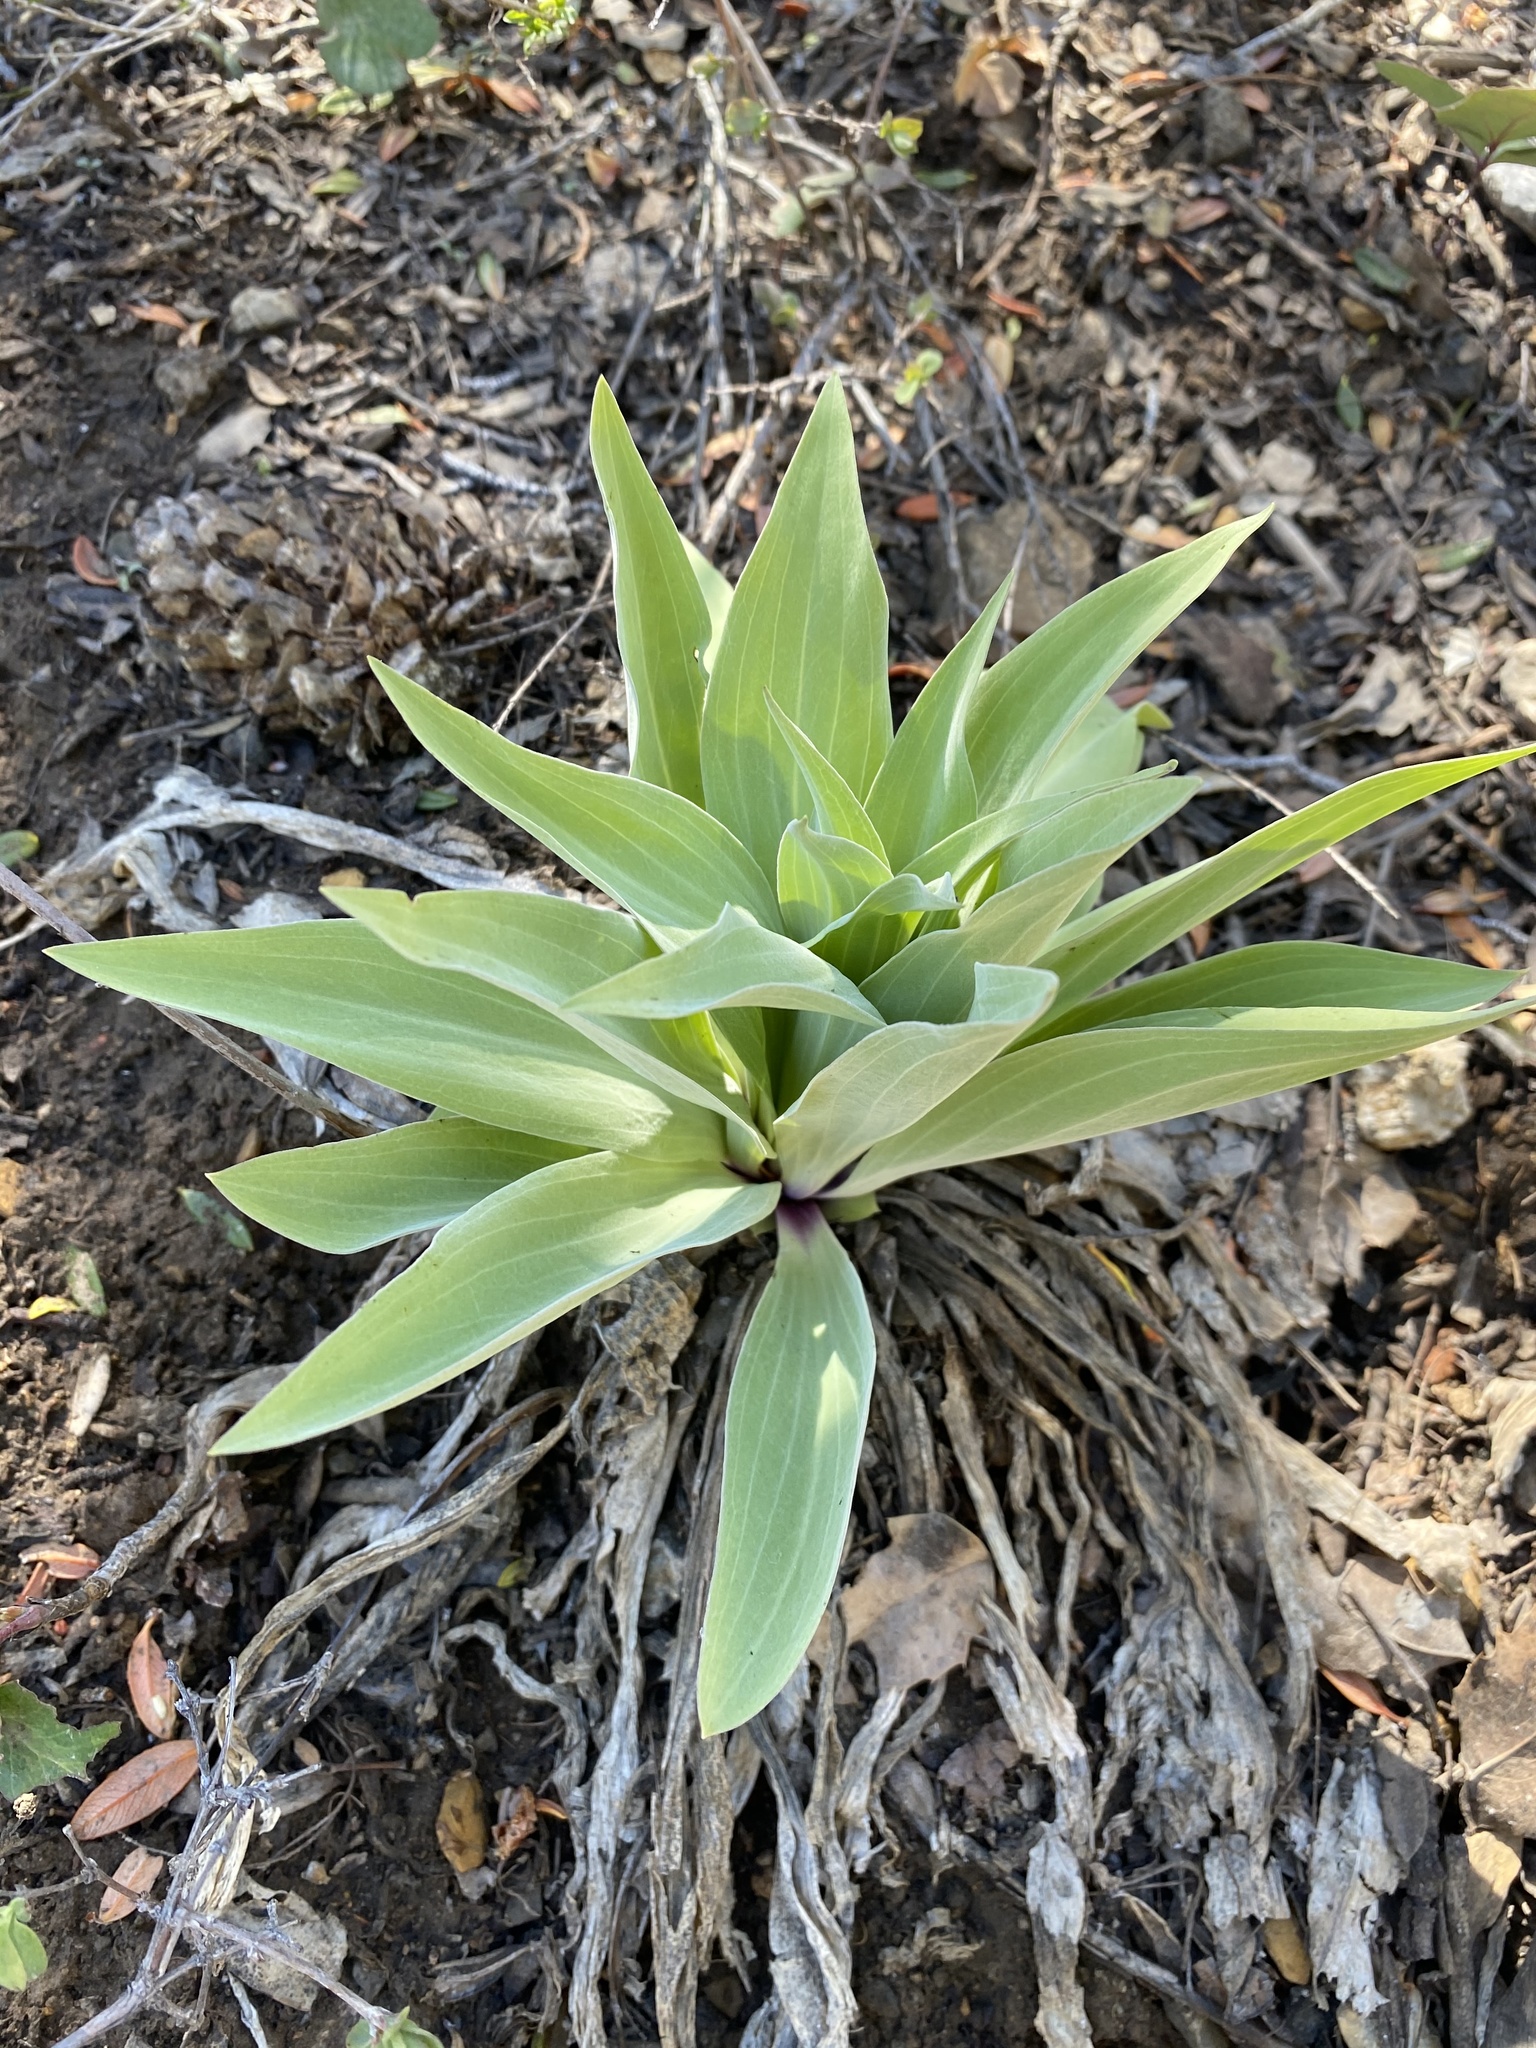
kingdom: Plantae
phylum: Tracheophyta
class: Magnoliopsida
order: Gentianales
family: Gentianaceae
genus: Frasera
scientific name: Frasera speciosa
